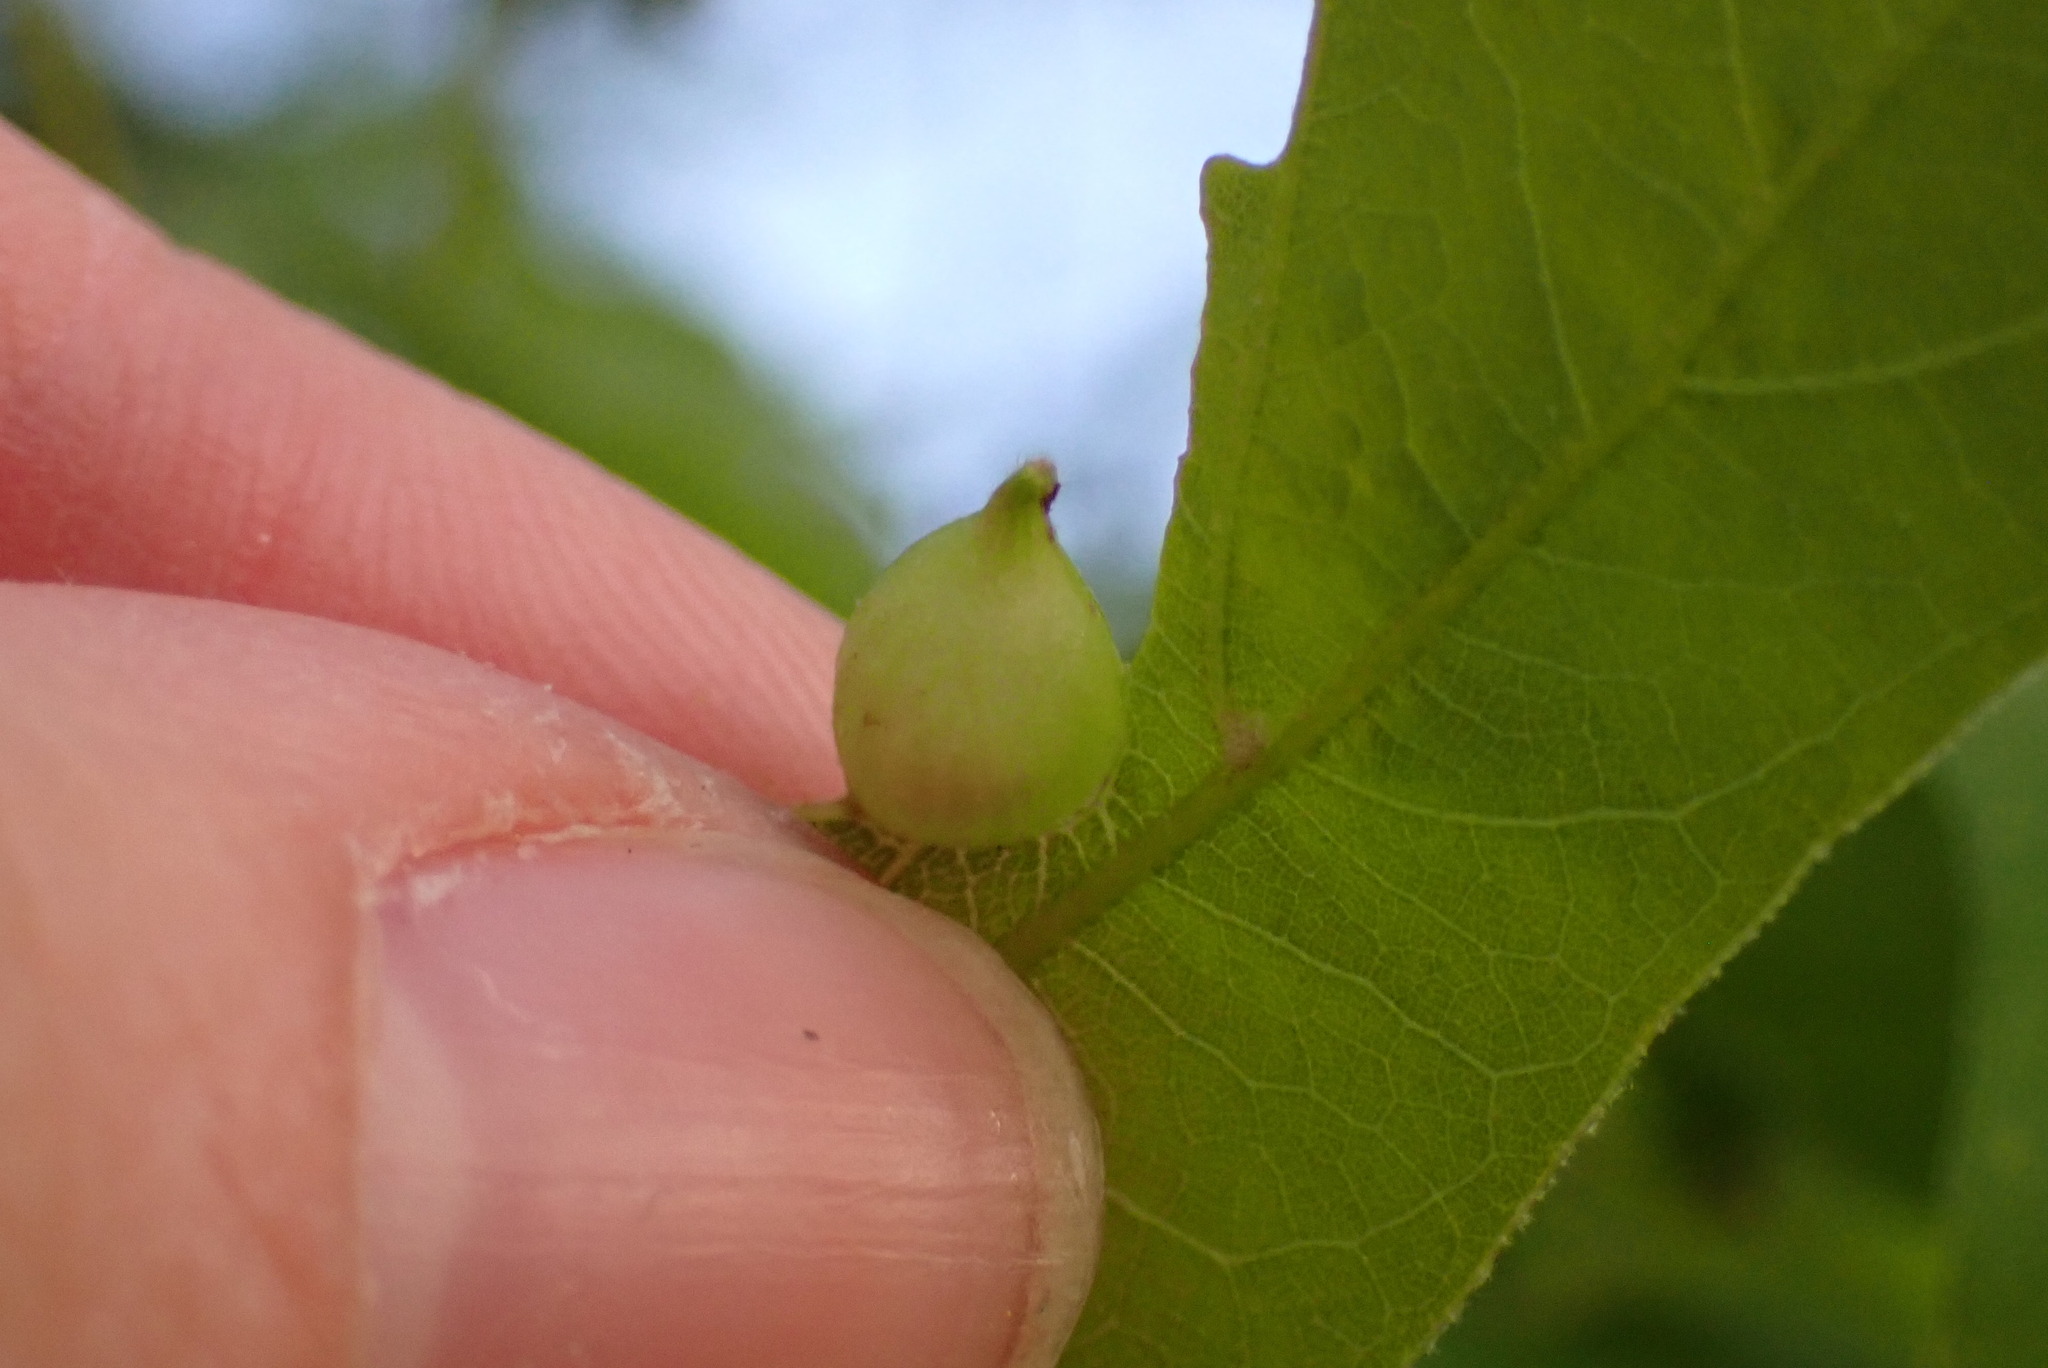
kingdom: Animalia
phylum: Arthropoda
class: Insecta
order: Hymenoptera
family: Cynipidae
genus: Dryocosmus
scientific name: Dryocosmus
